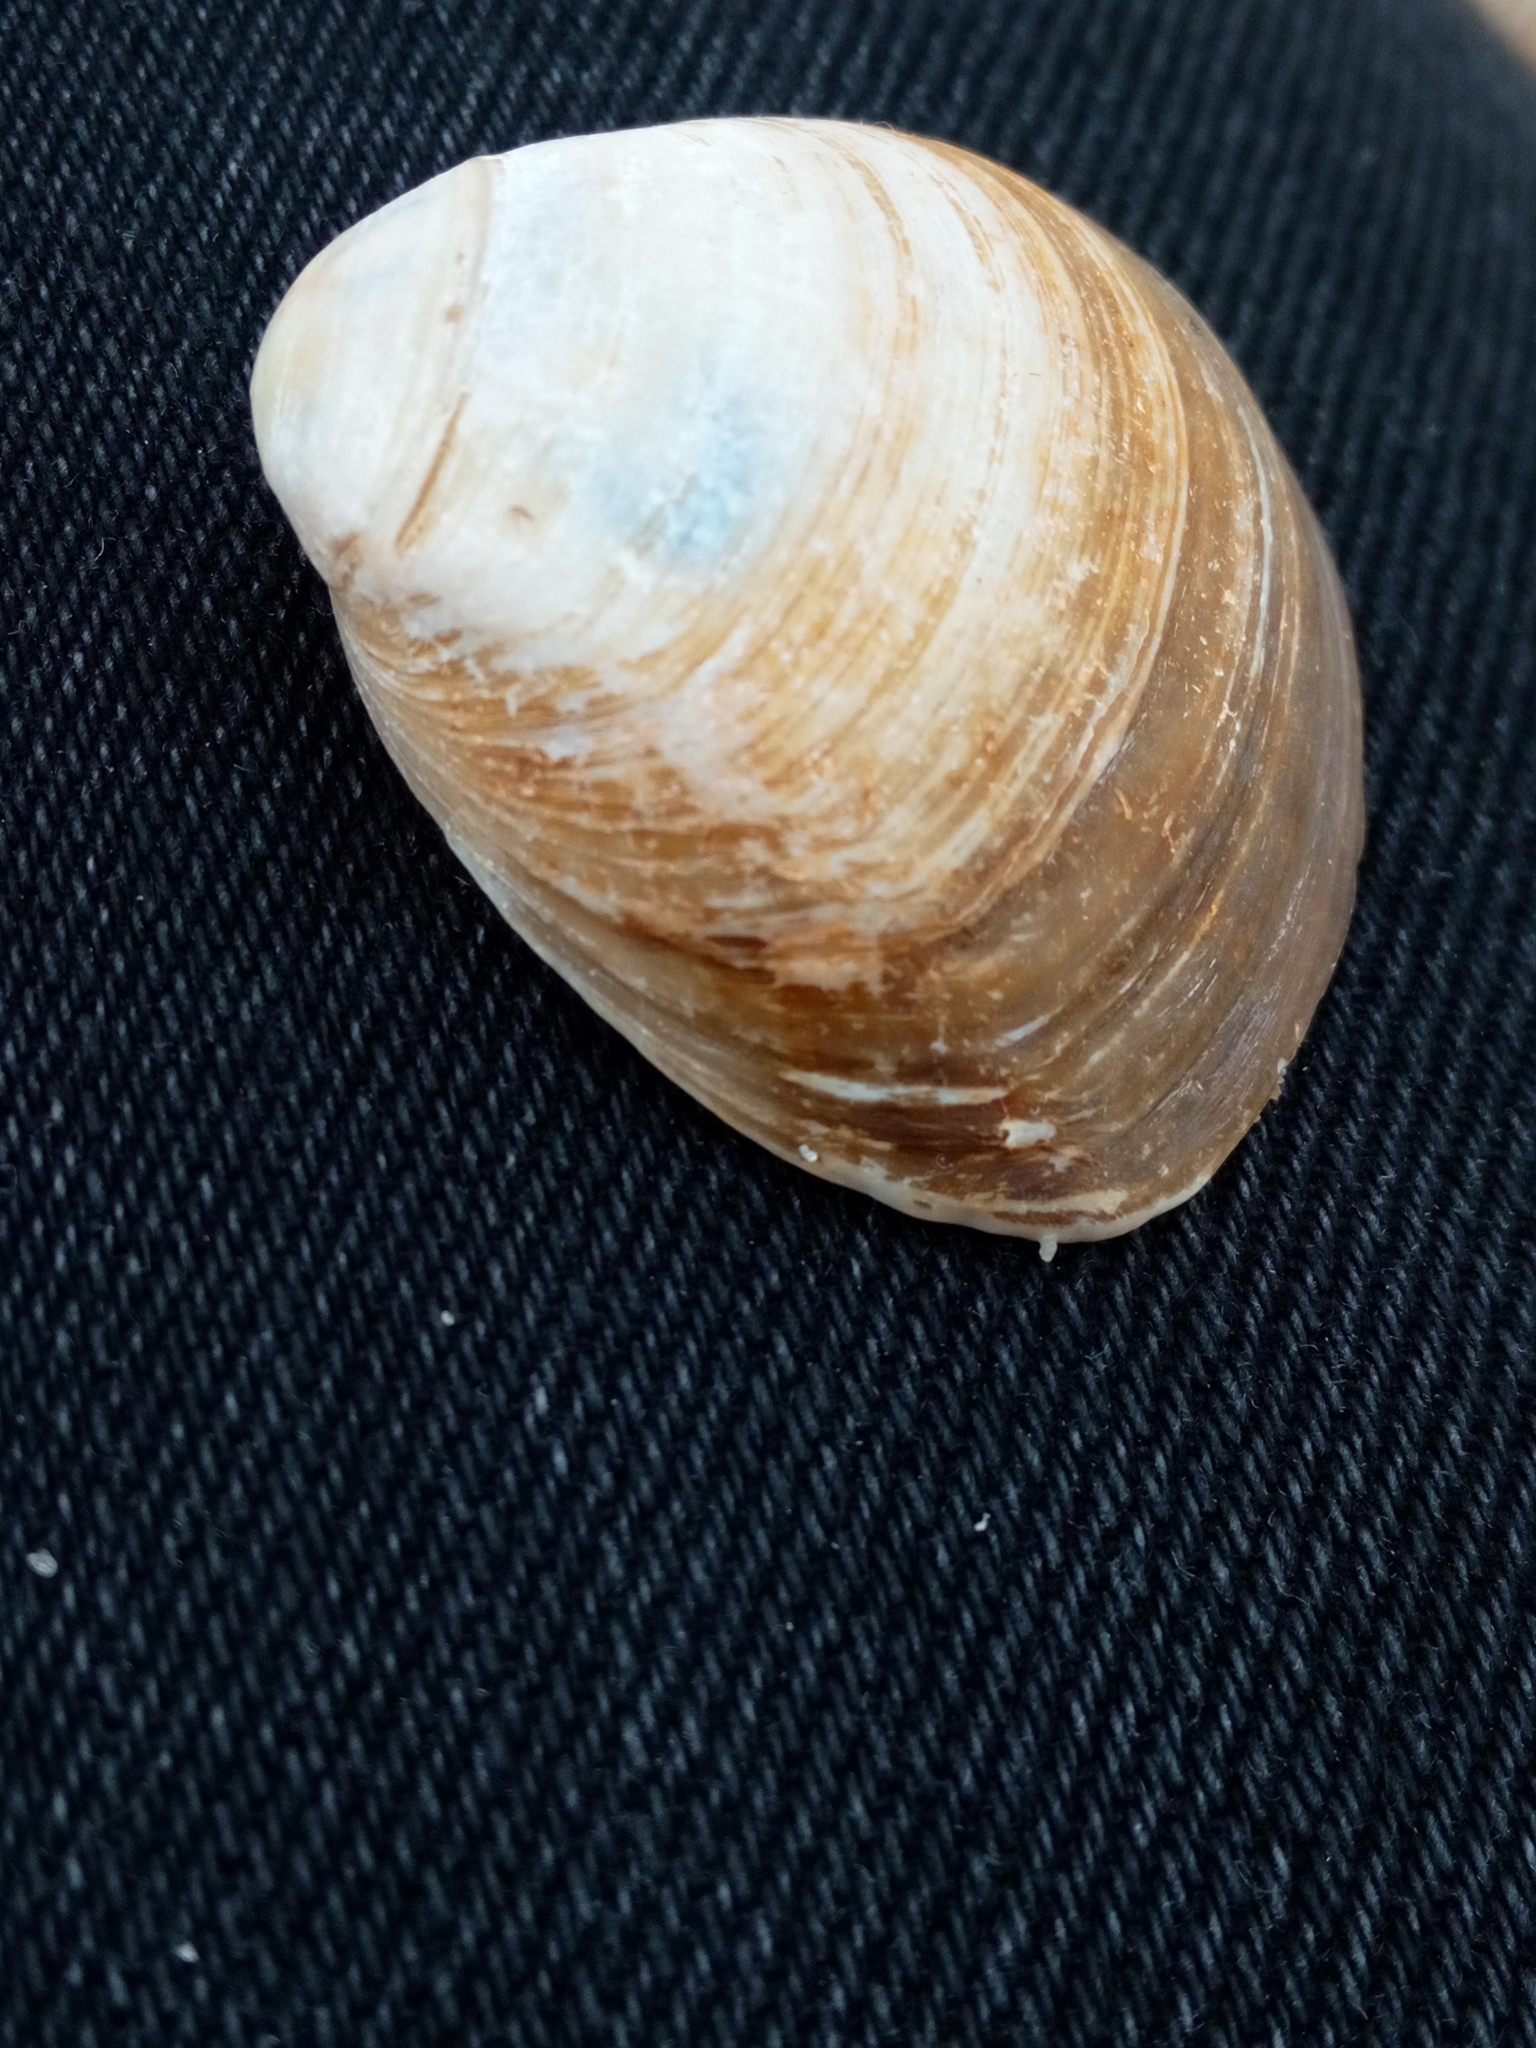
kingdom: Animalia
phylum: Mollusca
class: Bivalvia
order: Venerida
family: Mactridae
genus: Rangia
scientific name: Rangia cuneata
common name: Atlantic rangia
